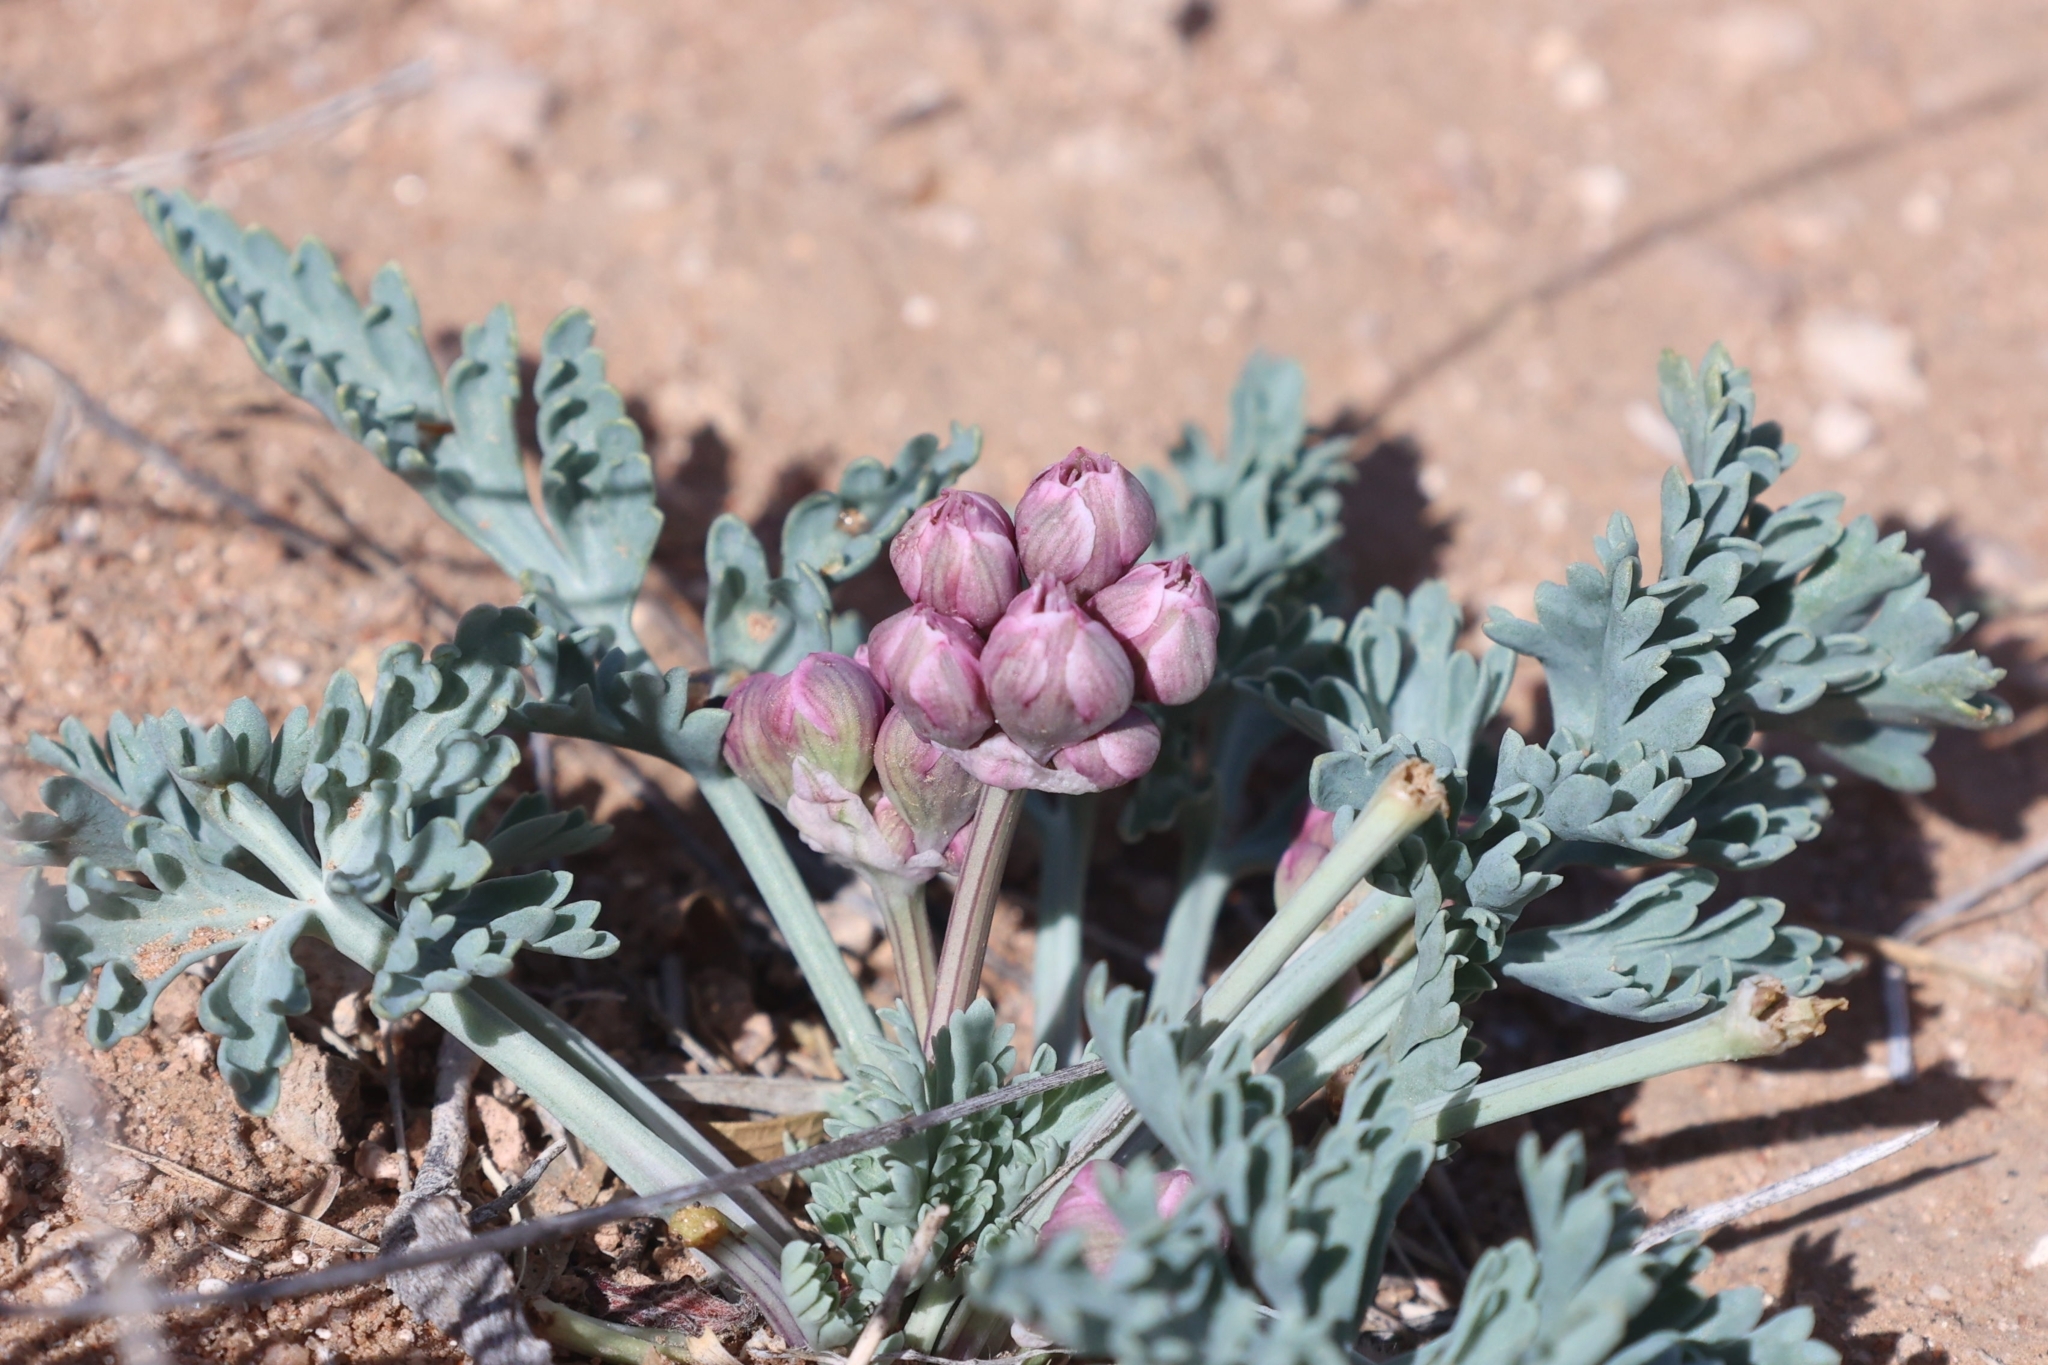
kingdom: Plantae
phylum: Tracheophyta
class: Magnoliopsida
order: Apiales
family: Apiaceae
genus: Vesper
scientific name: Vesper multinervatus
